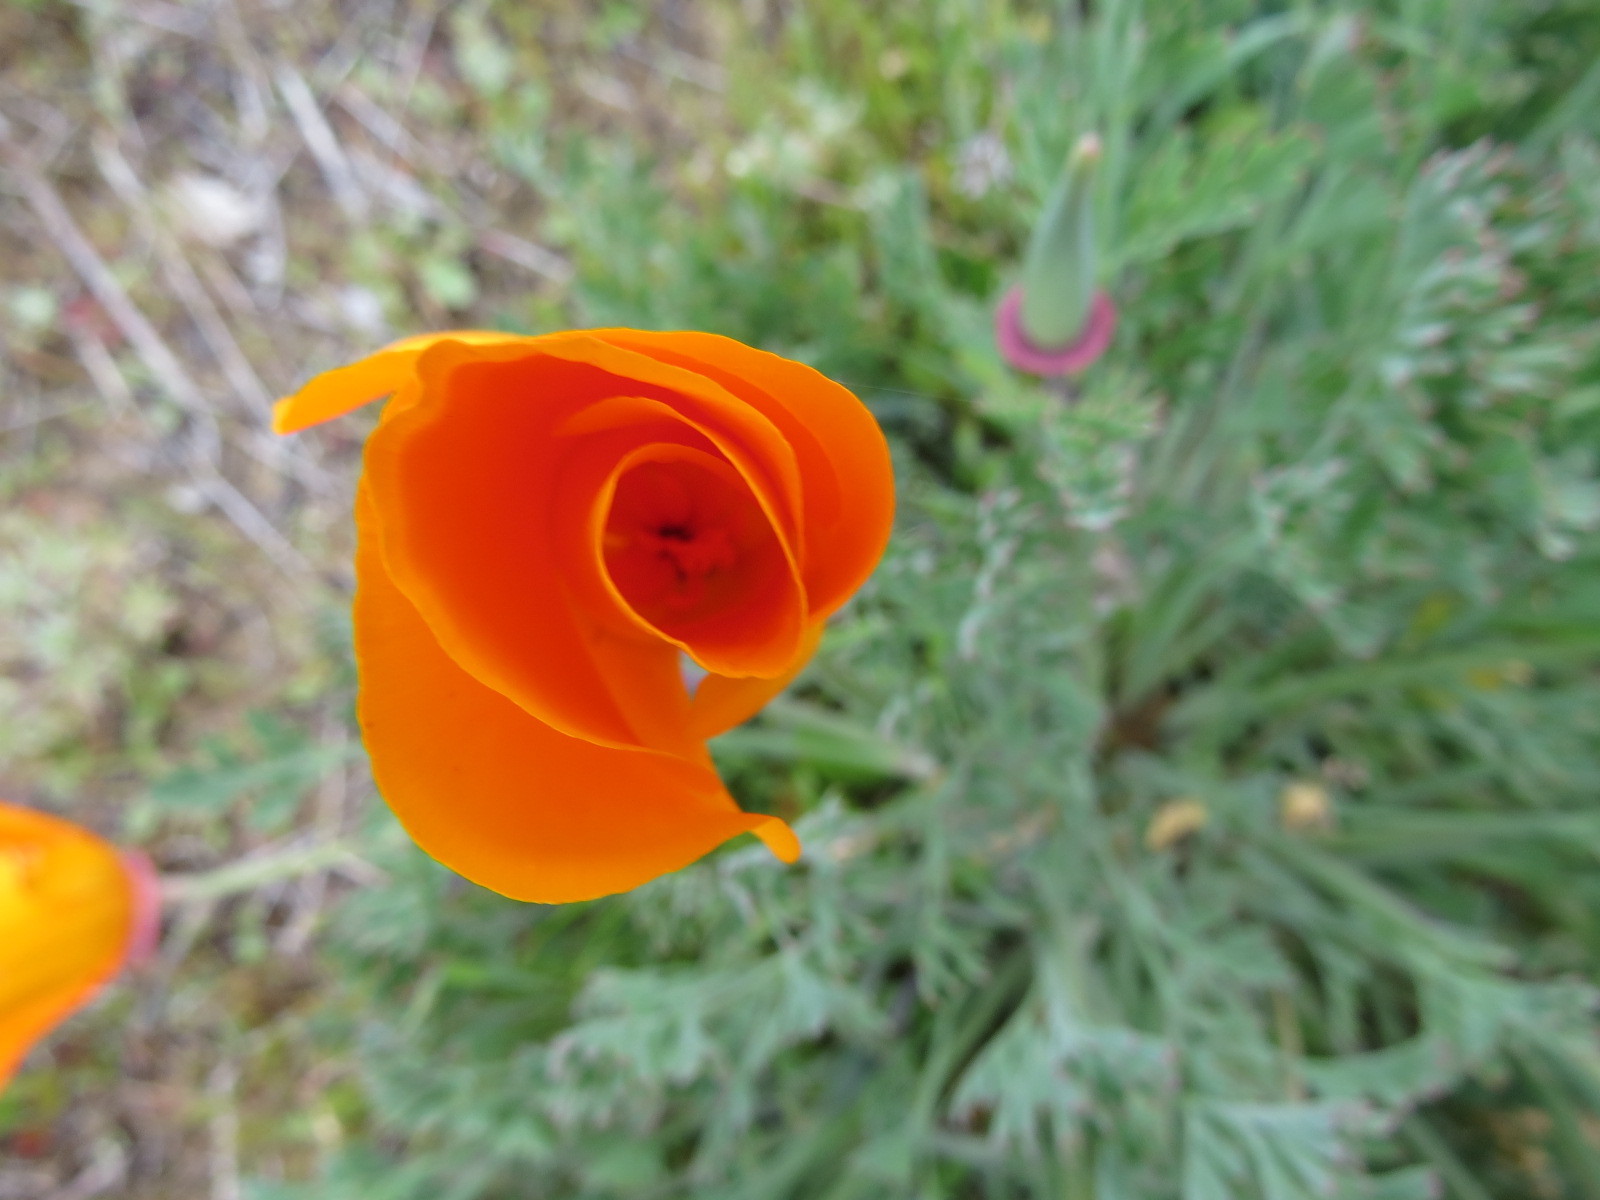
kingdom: Plantae
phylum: Tracheophyta
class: Magnoliopsida
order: Ranunculales
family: Papaveraceae
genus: Eschscholzia
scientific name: Eschscholzia californica
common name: California poppy
